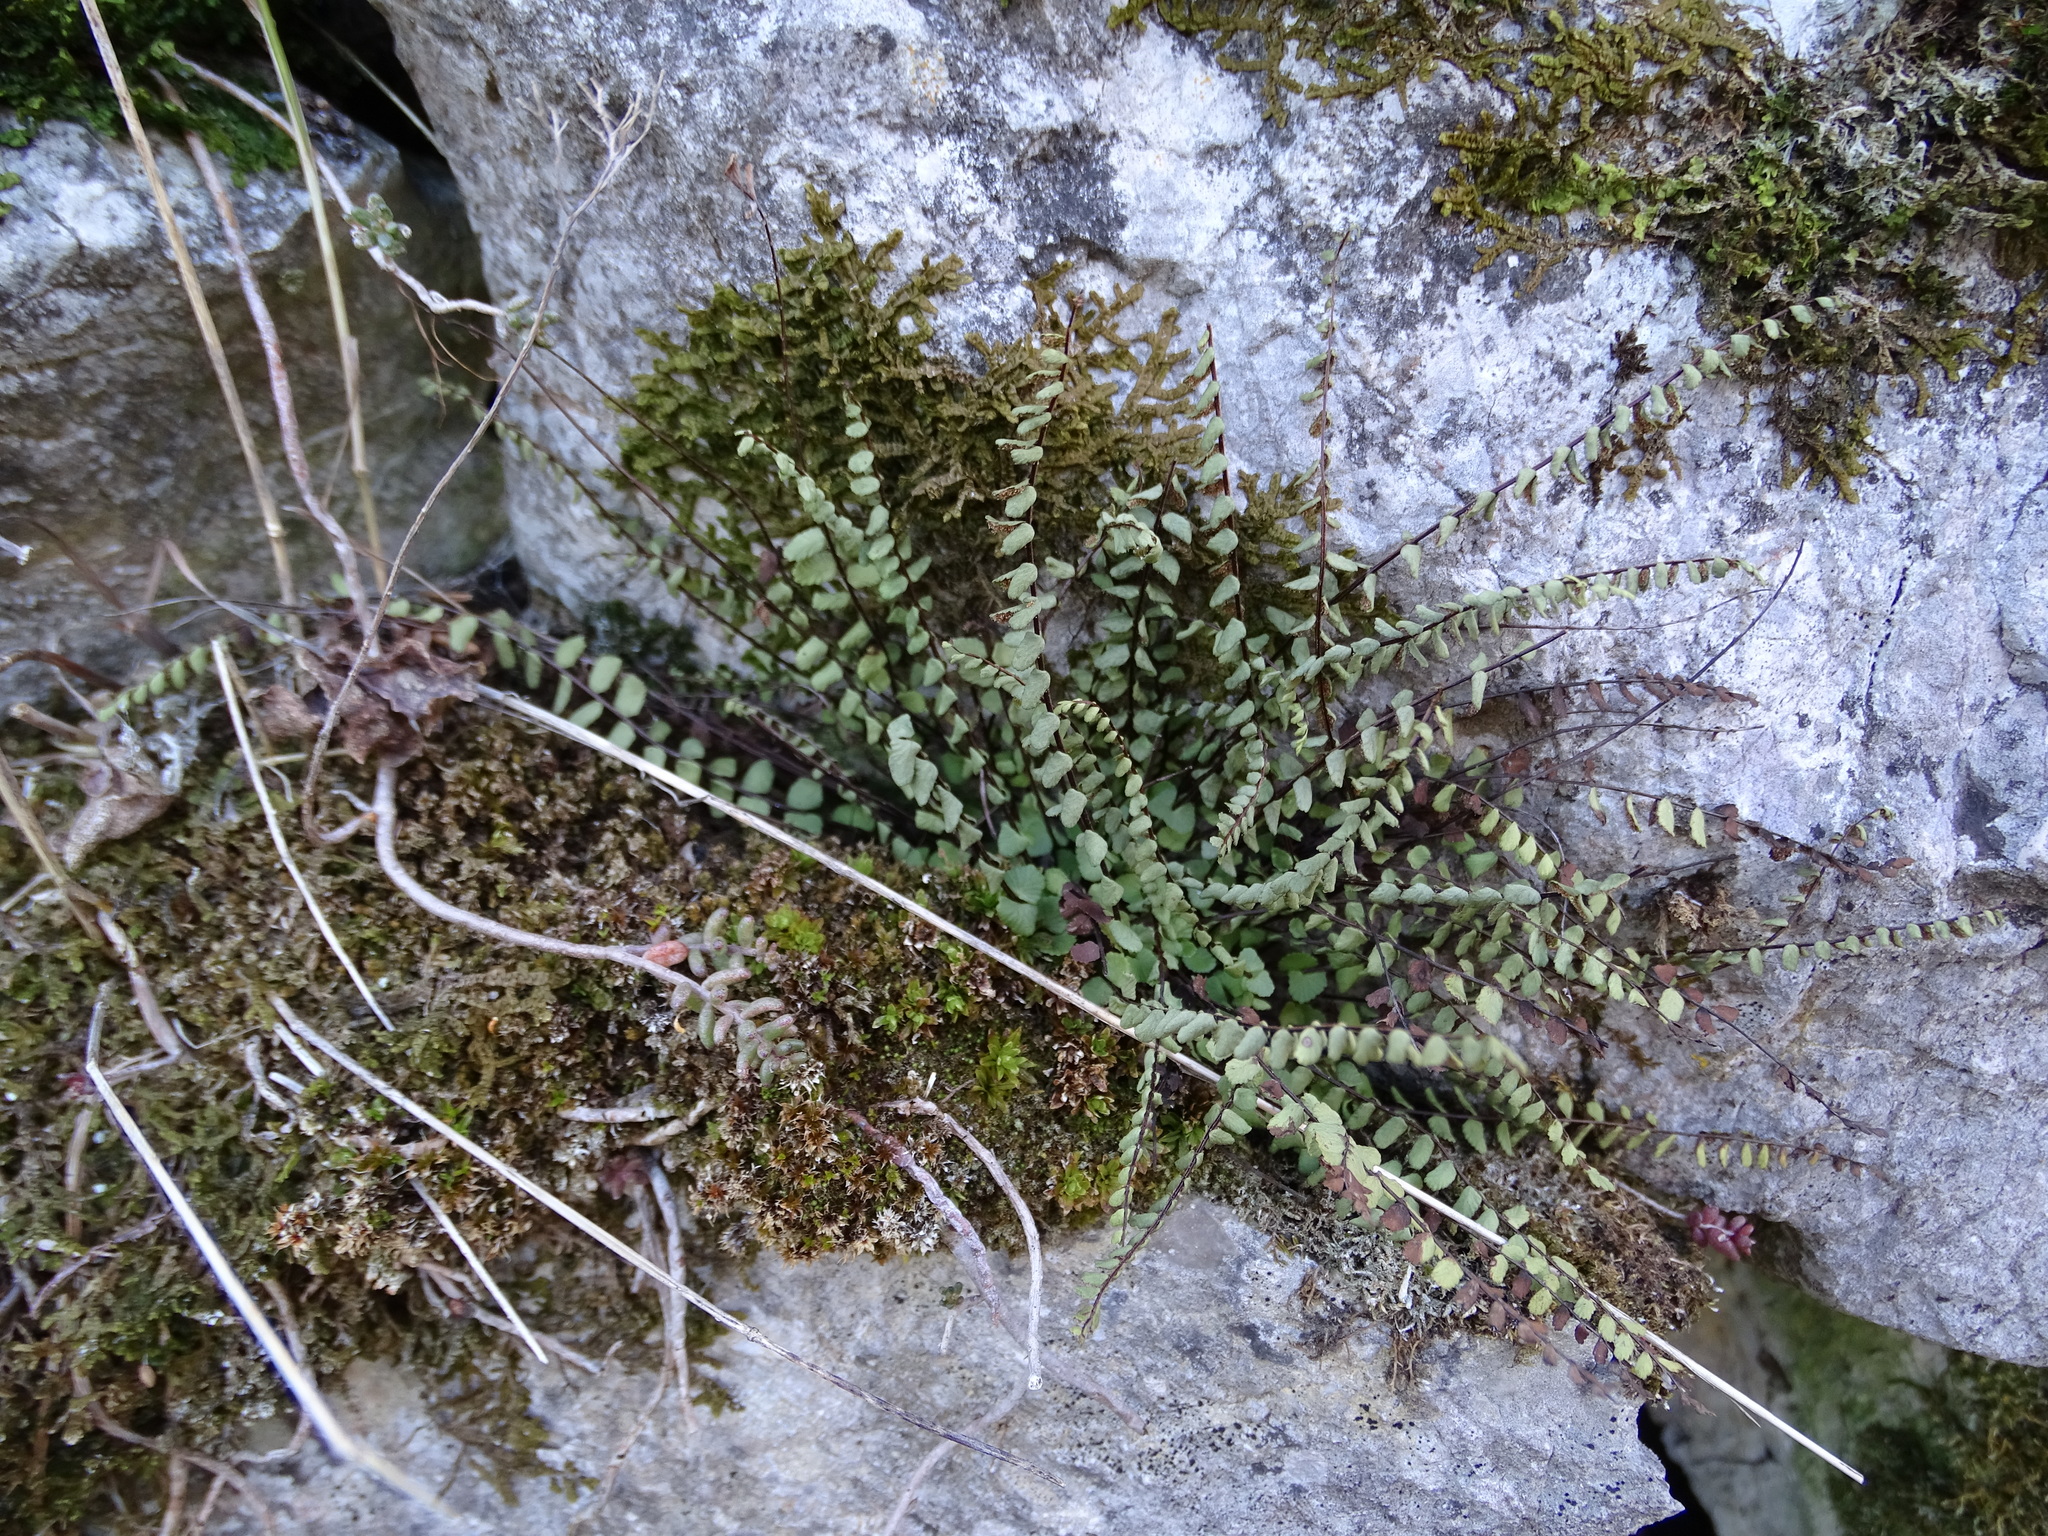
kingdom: Plantae
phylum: Tracheophyta
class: Polypodiopsida
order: Polypodiales
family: Aspleniaceae
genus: Asplenium
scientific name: Asplenium trichomanes
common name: Maidenhair spleenwort
